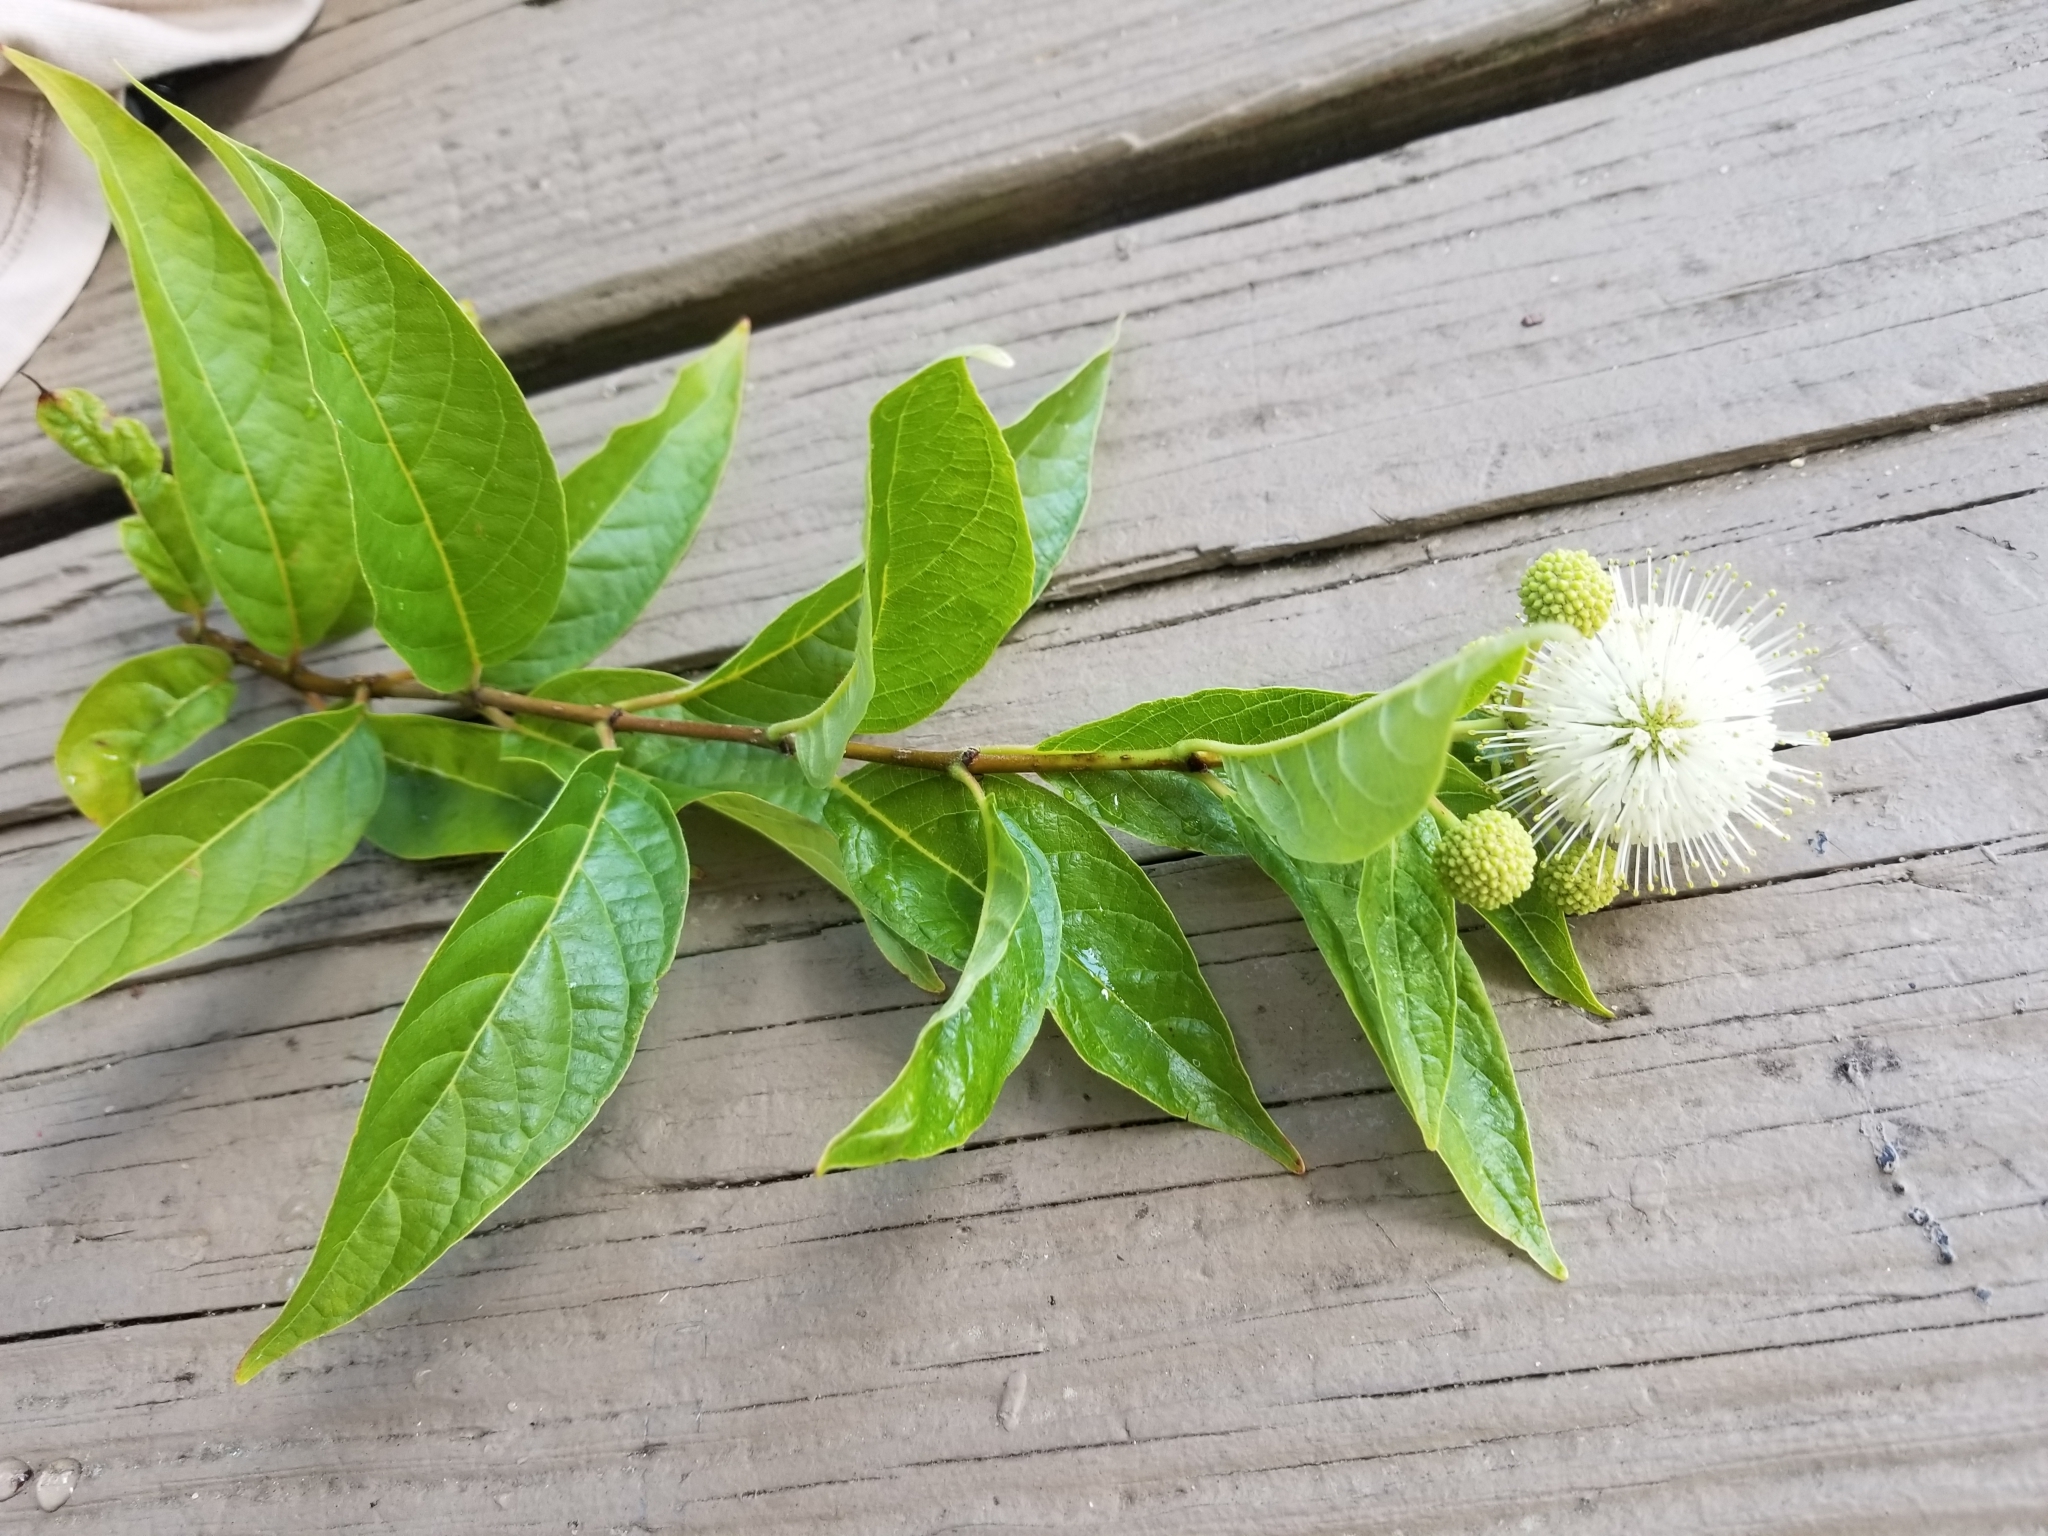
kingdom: Plantae
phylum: Tracheophyta
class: Magnoliopsida
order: Gentianales
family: Rubiaceae
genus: Cephalanthus
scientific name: Cephalanthus occidentalis
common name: Button-willow
